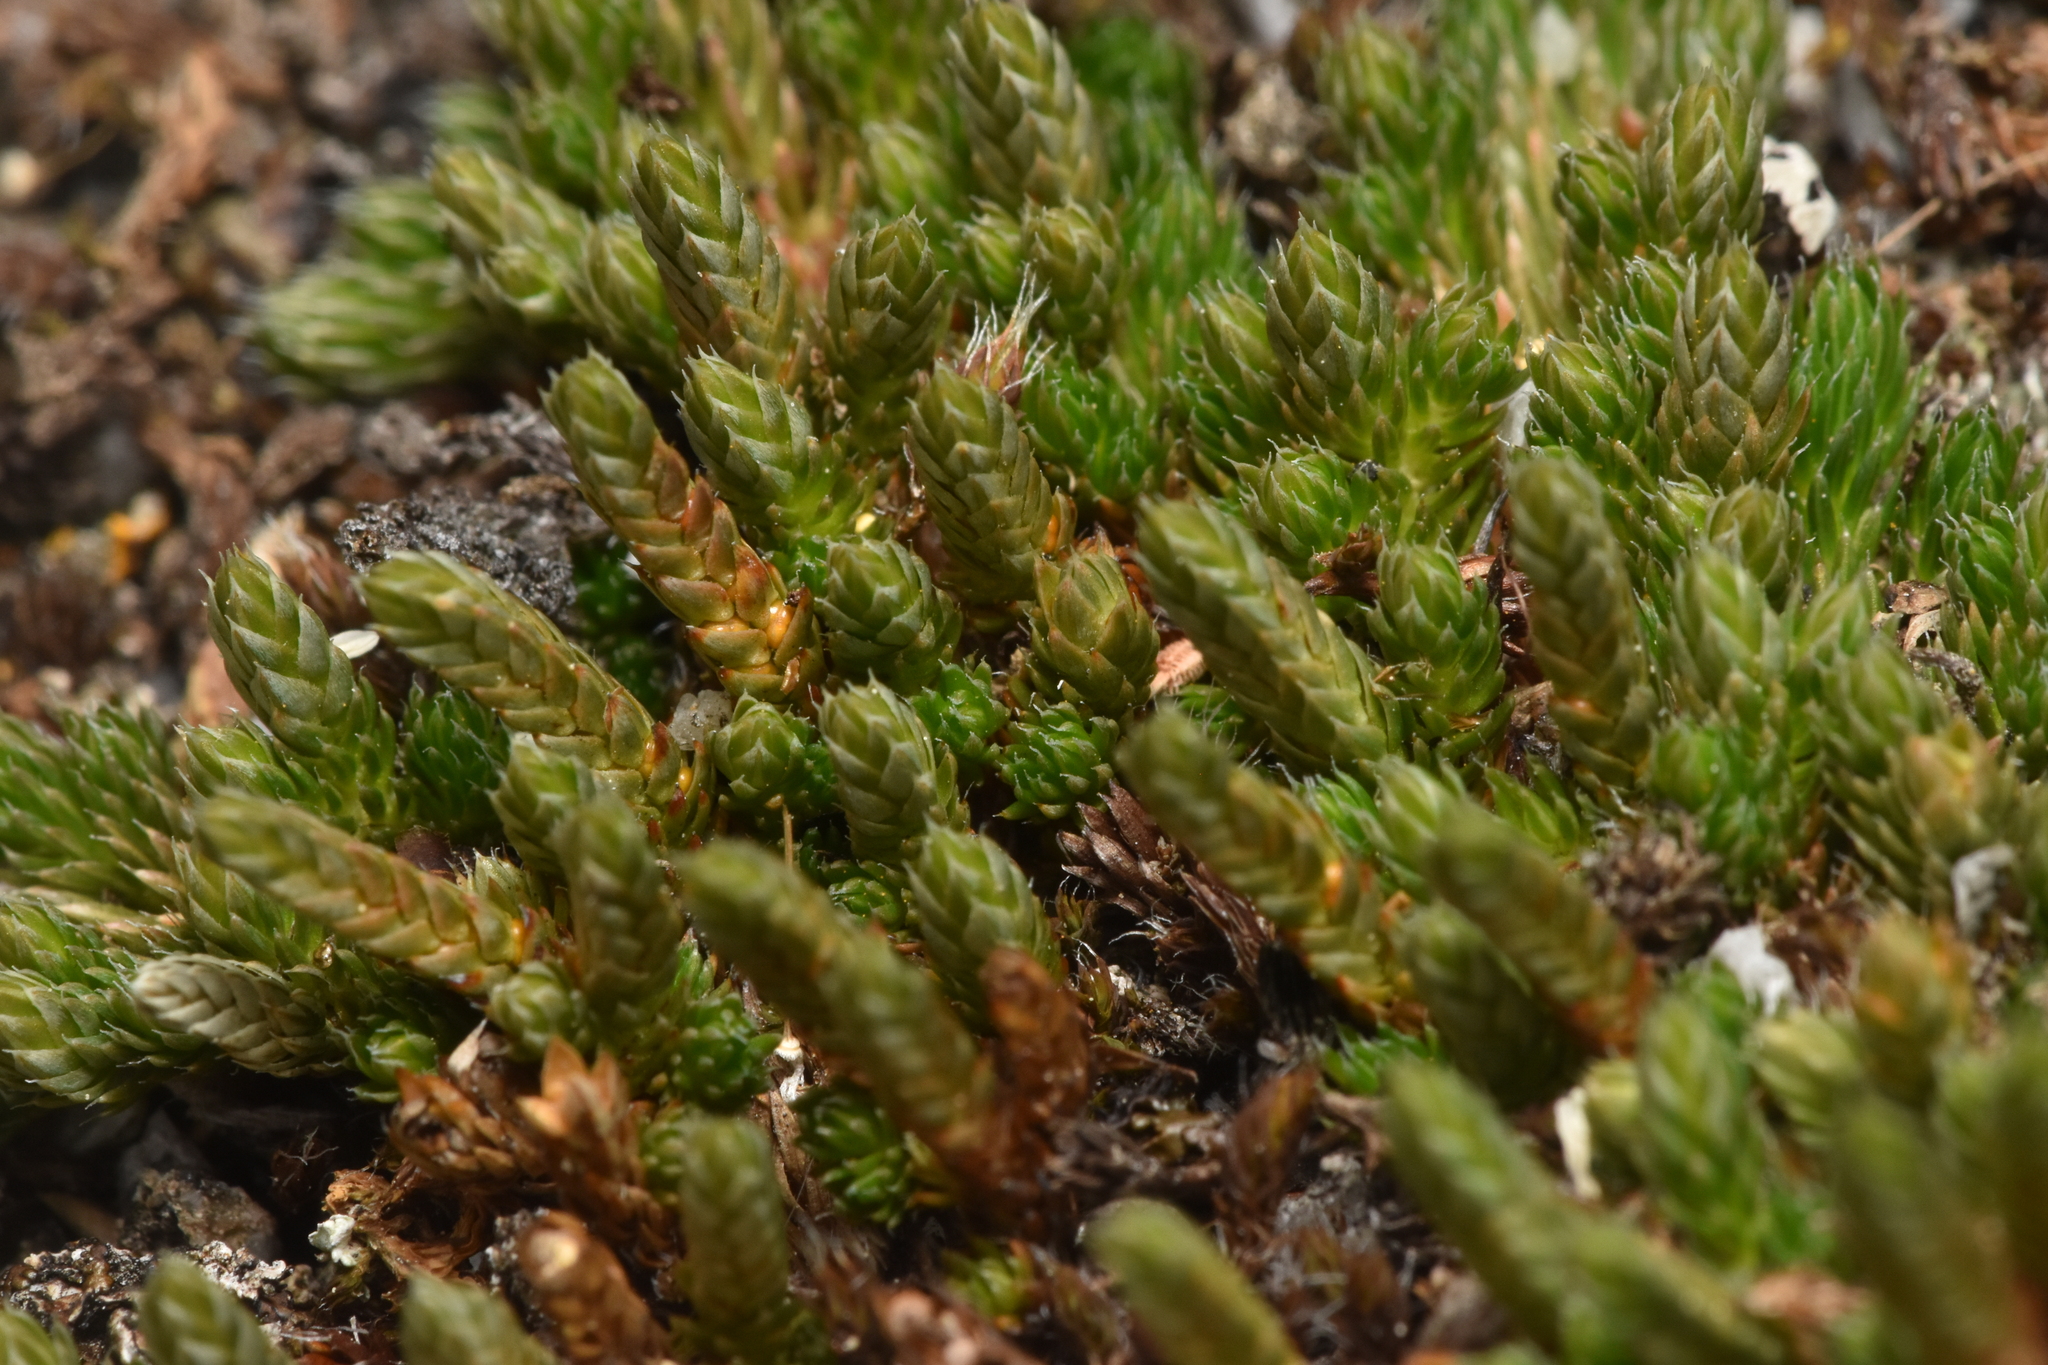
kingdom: Plantae
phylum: Tracheophyta
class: Lycopodiopsida
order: Selaginellales
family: Selaginellaceae
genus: Selaginella
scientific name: Selaginella densa
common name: Mountain spike-moss
